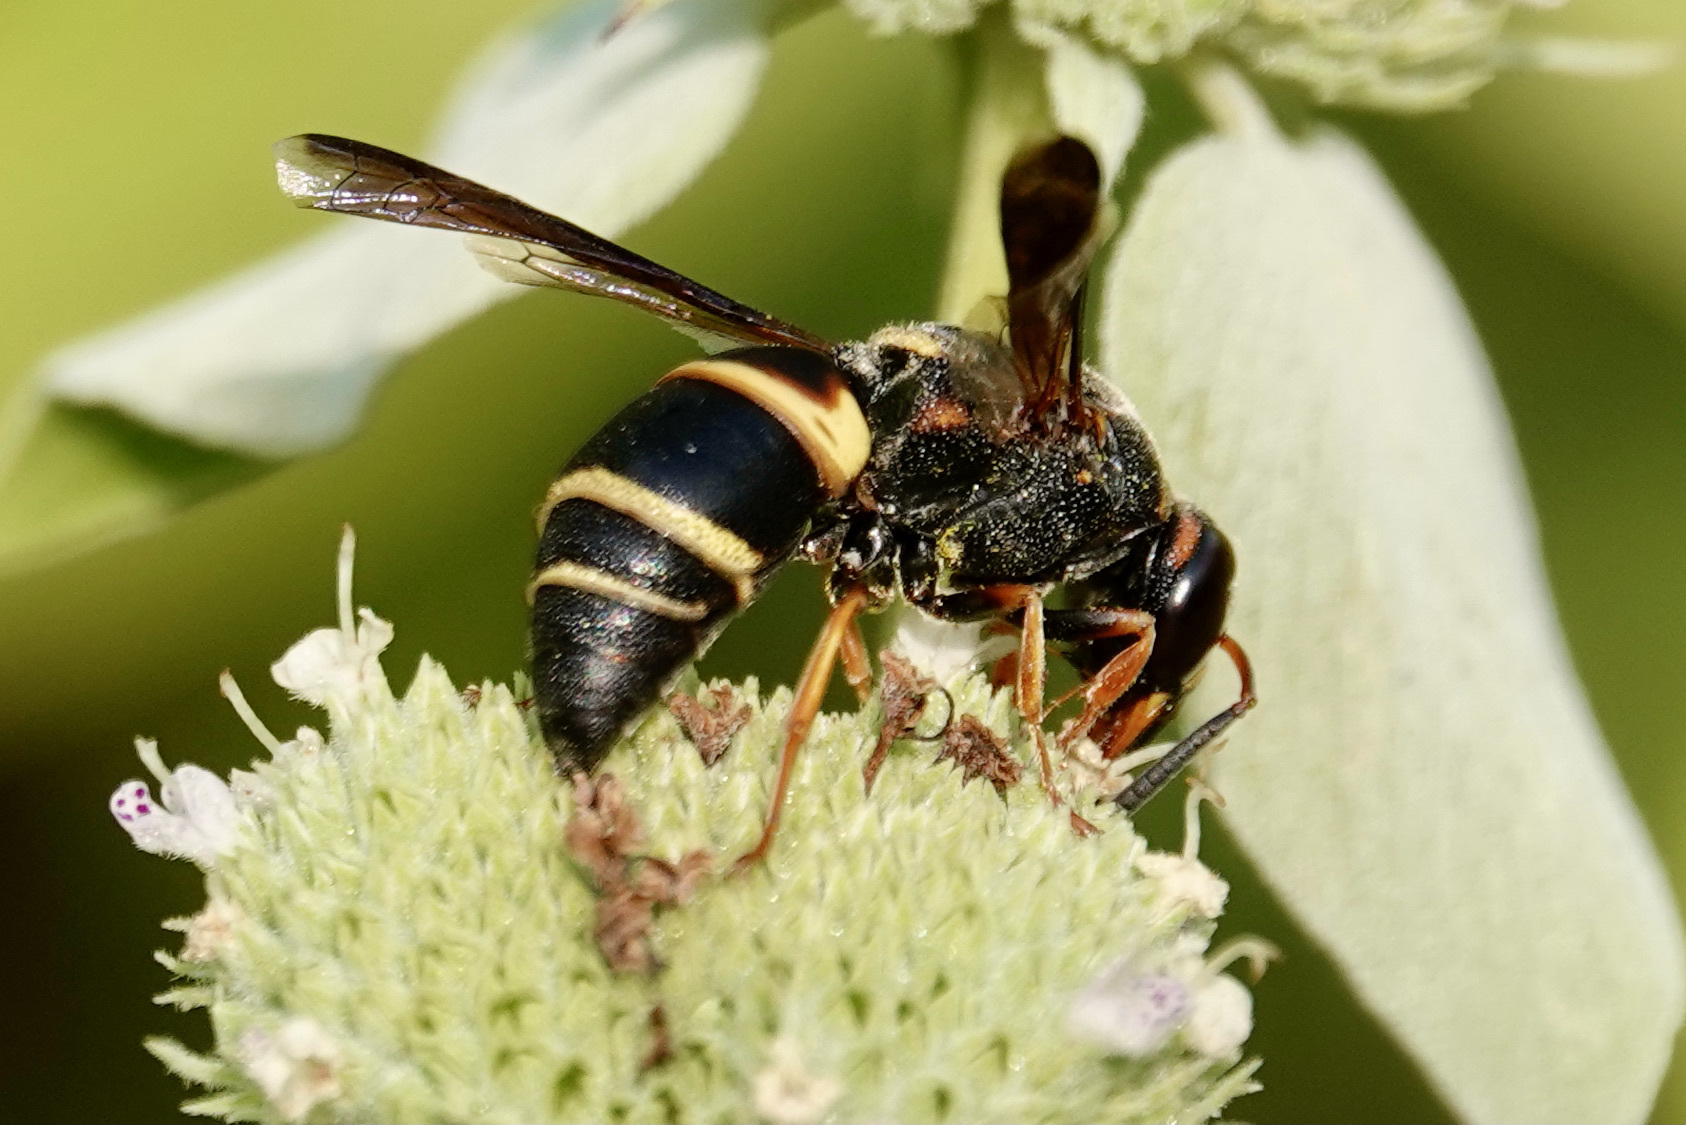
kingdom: Animalia
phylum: Arthropoda
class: Insecta
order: Hymenoptera
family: Eumenidae
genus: Euodynerus
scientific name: Euodynerus hidalgo
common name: Wasp
